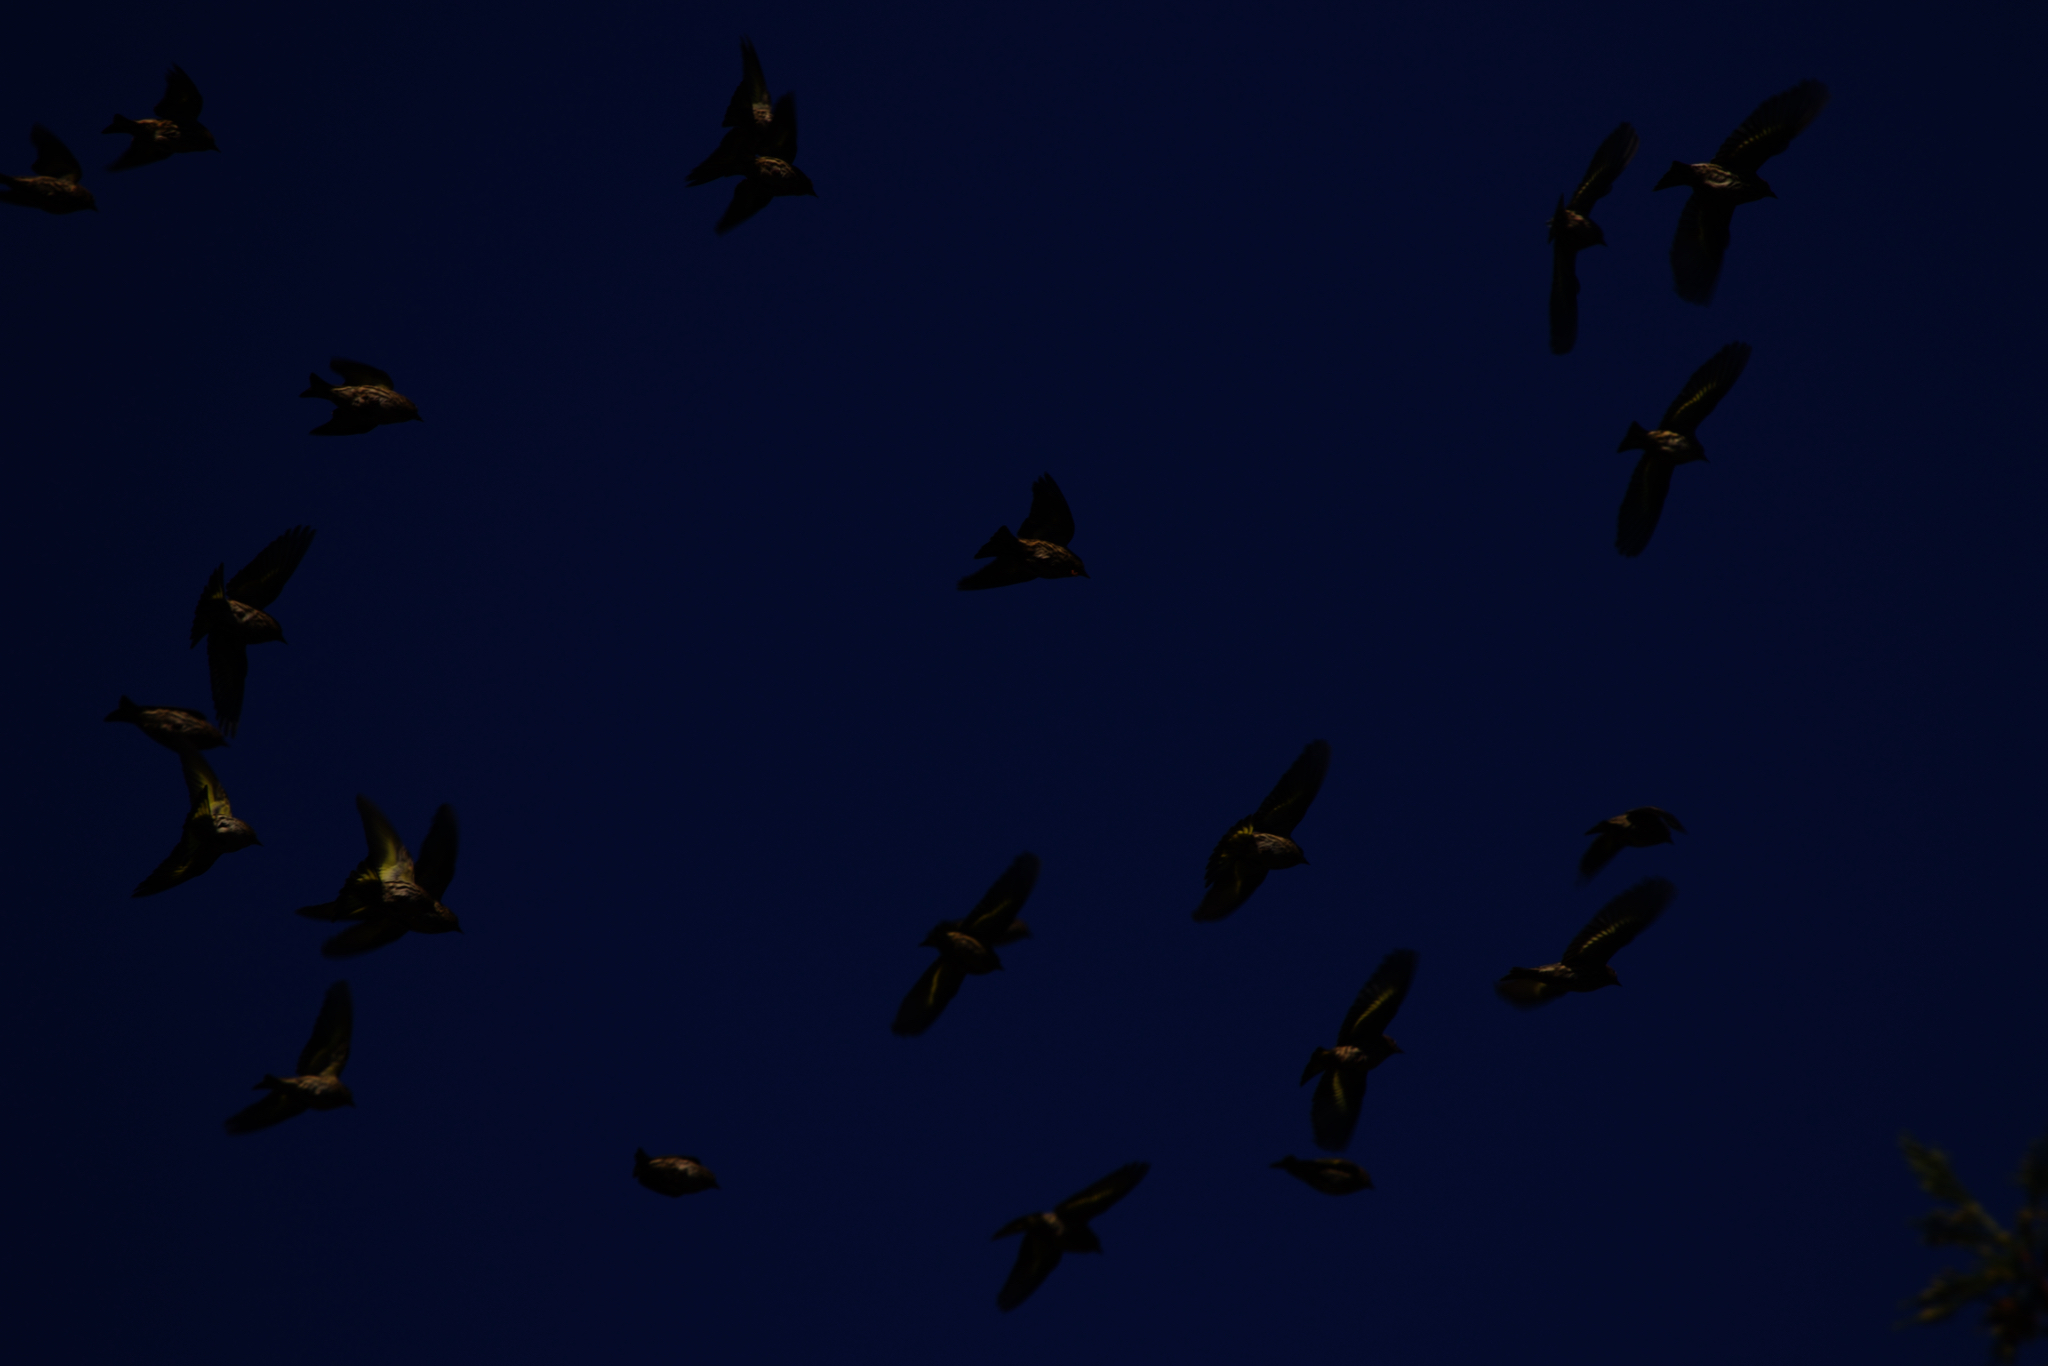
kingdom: Animalia
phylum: Chordata
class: Aves
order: Passeriformes
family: Fringillidae
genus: Spinus
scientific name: Spinus pinus
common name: Pine siskin
